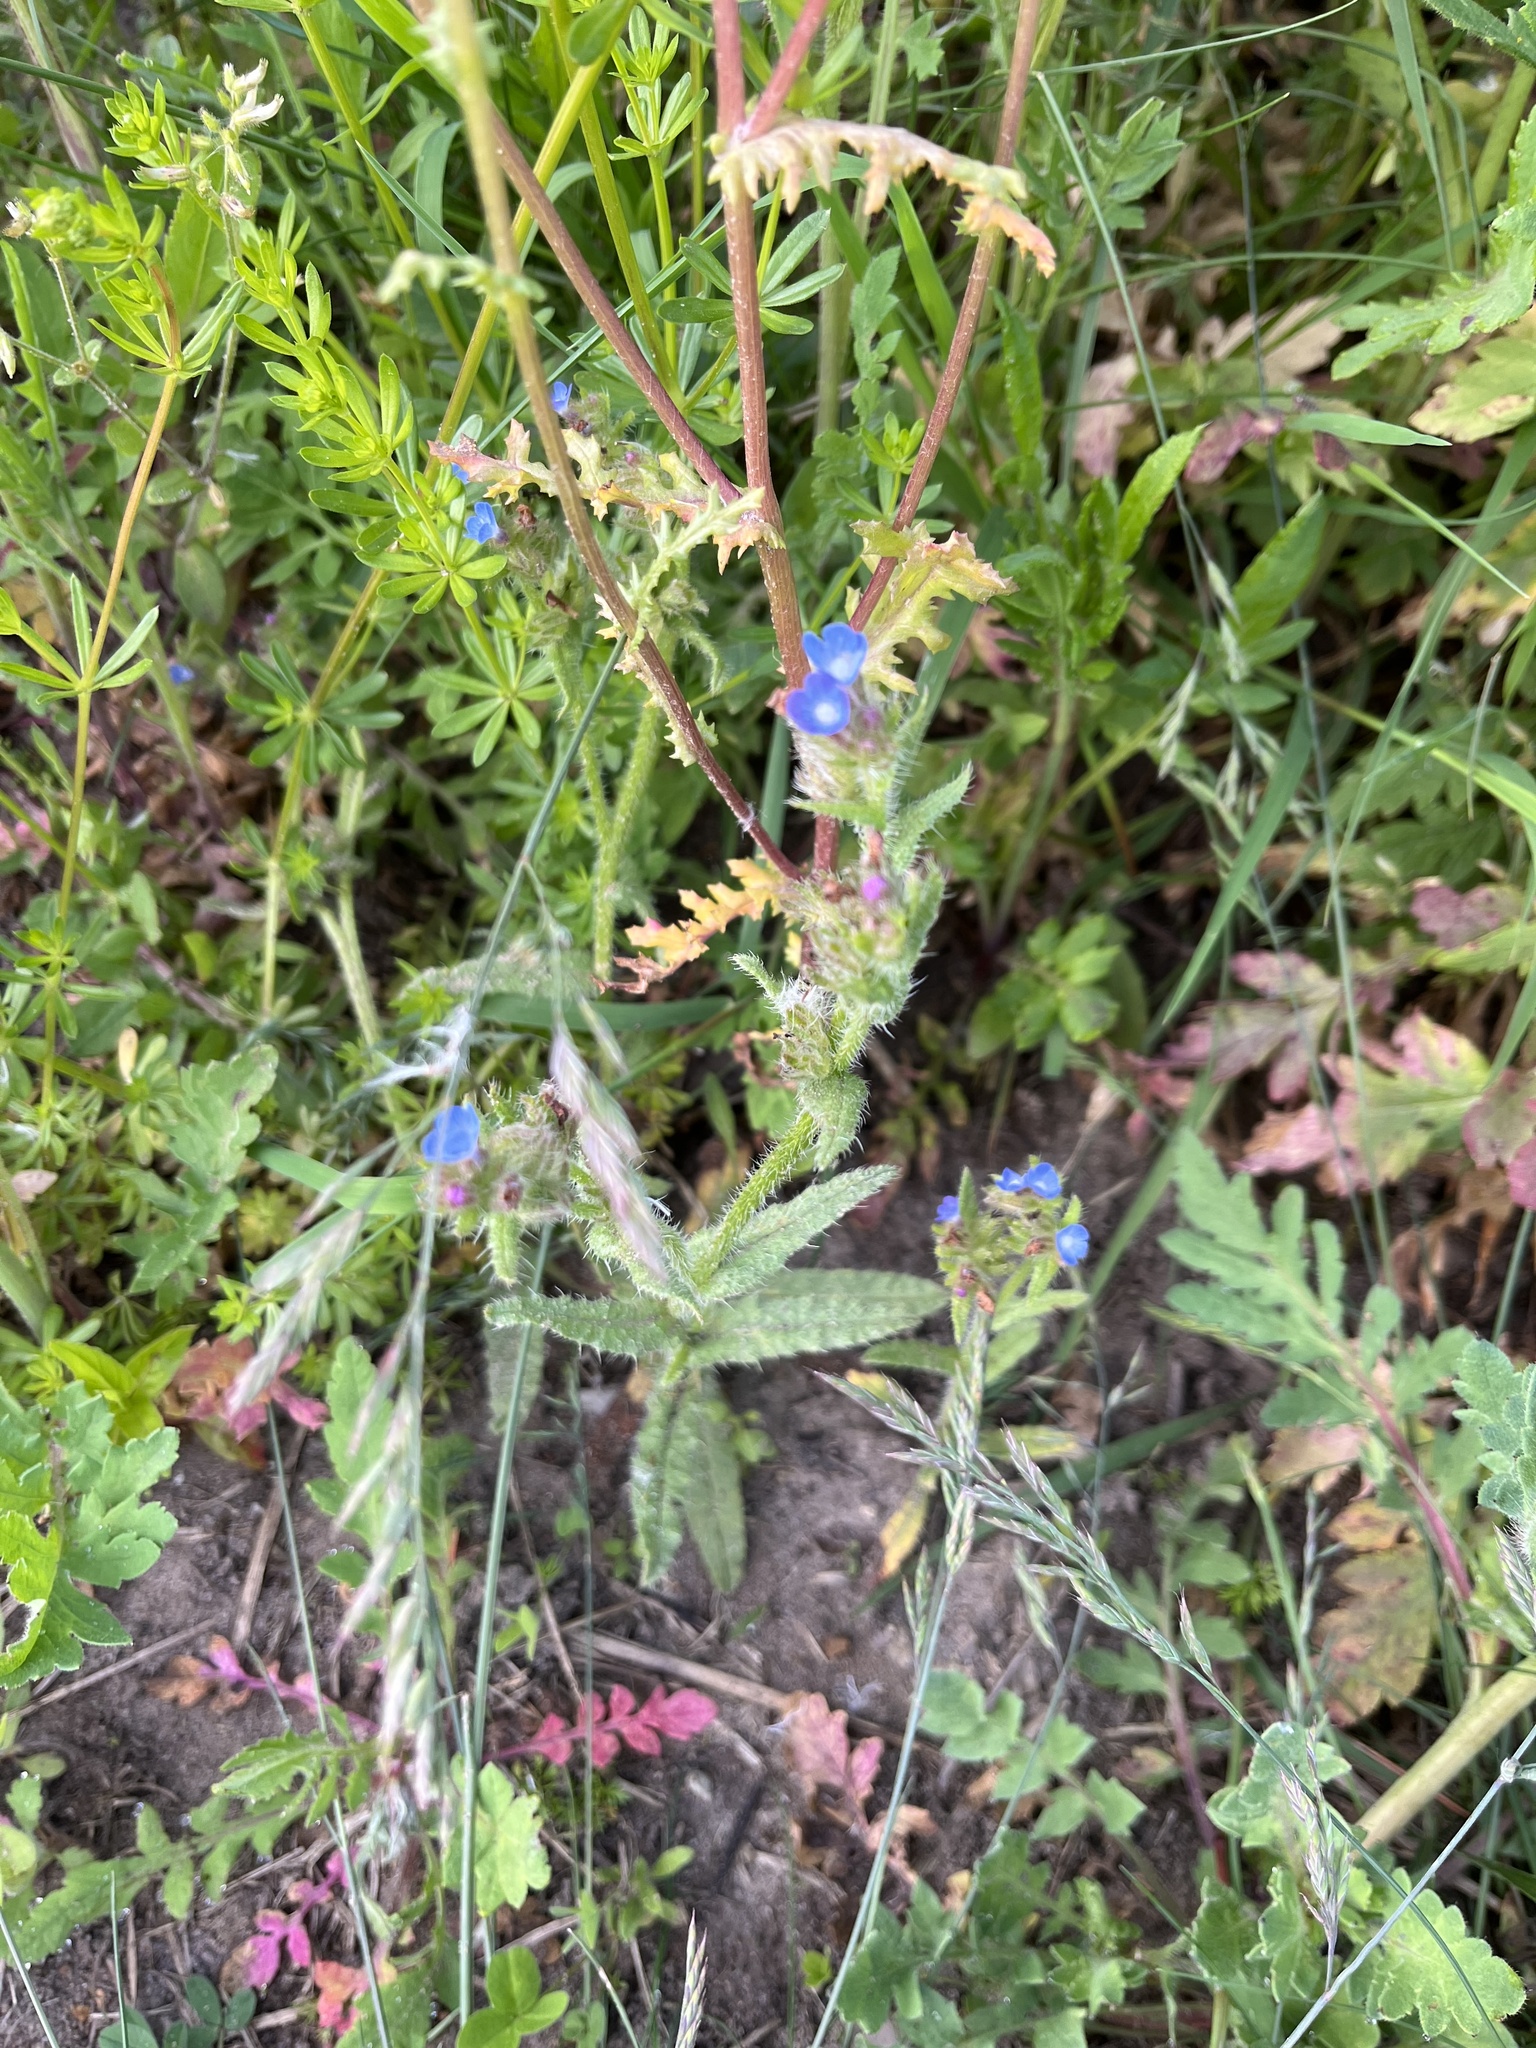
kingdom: Plantae
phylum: Tracheophyta
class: Magnoliopsida
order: Boraginales
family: Boraginaceae
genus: Lycopsis
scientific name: Lycopsis arvensis
